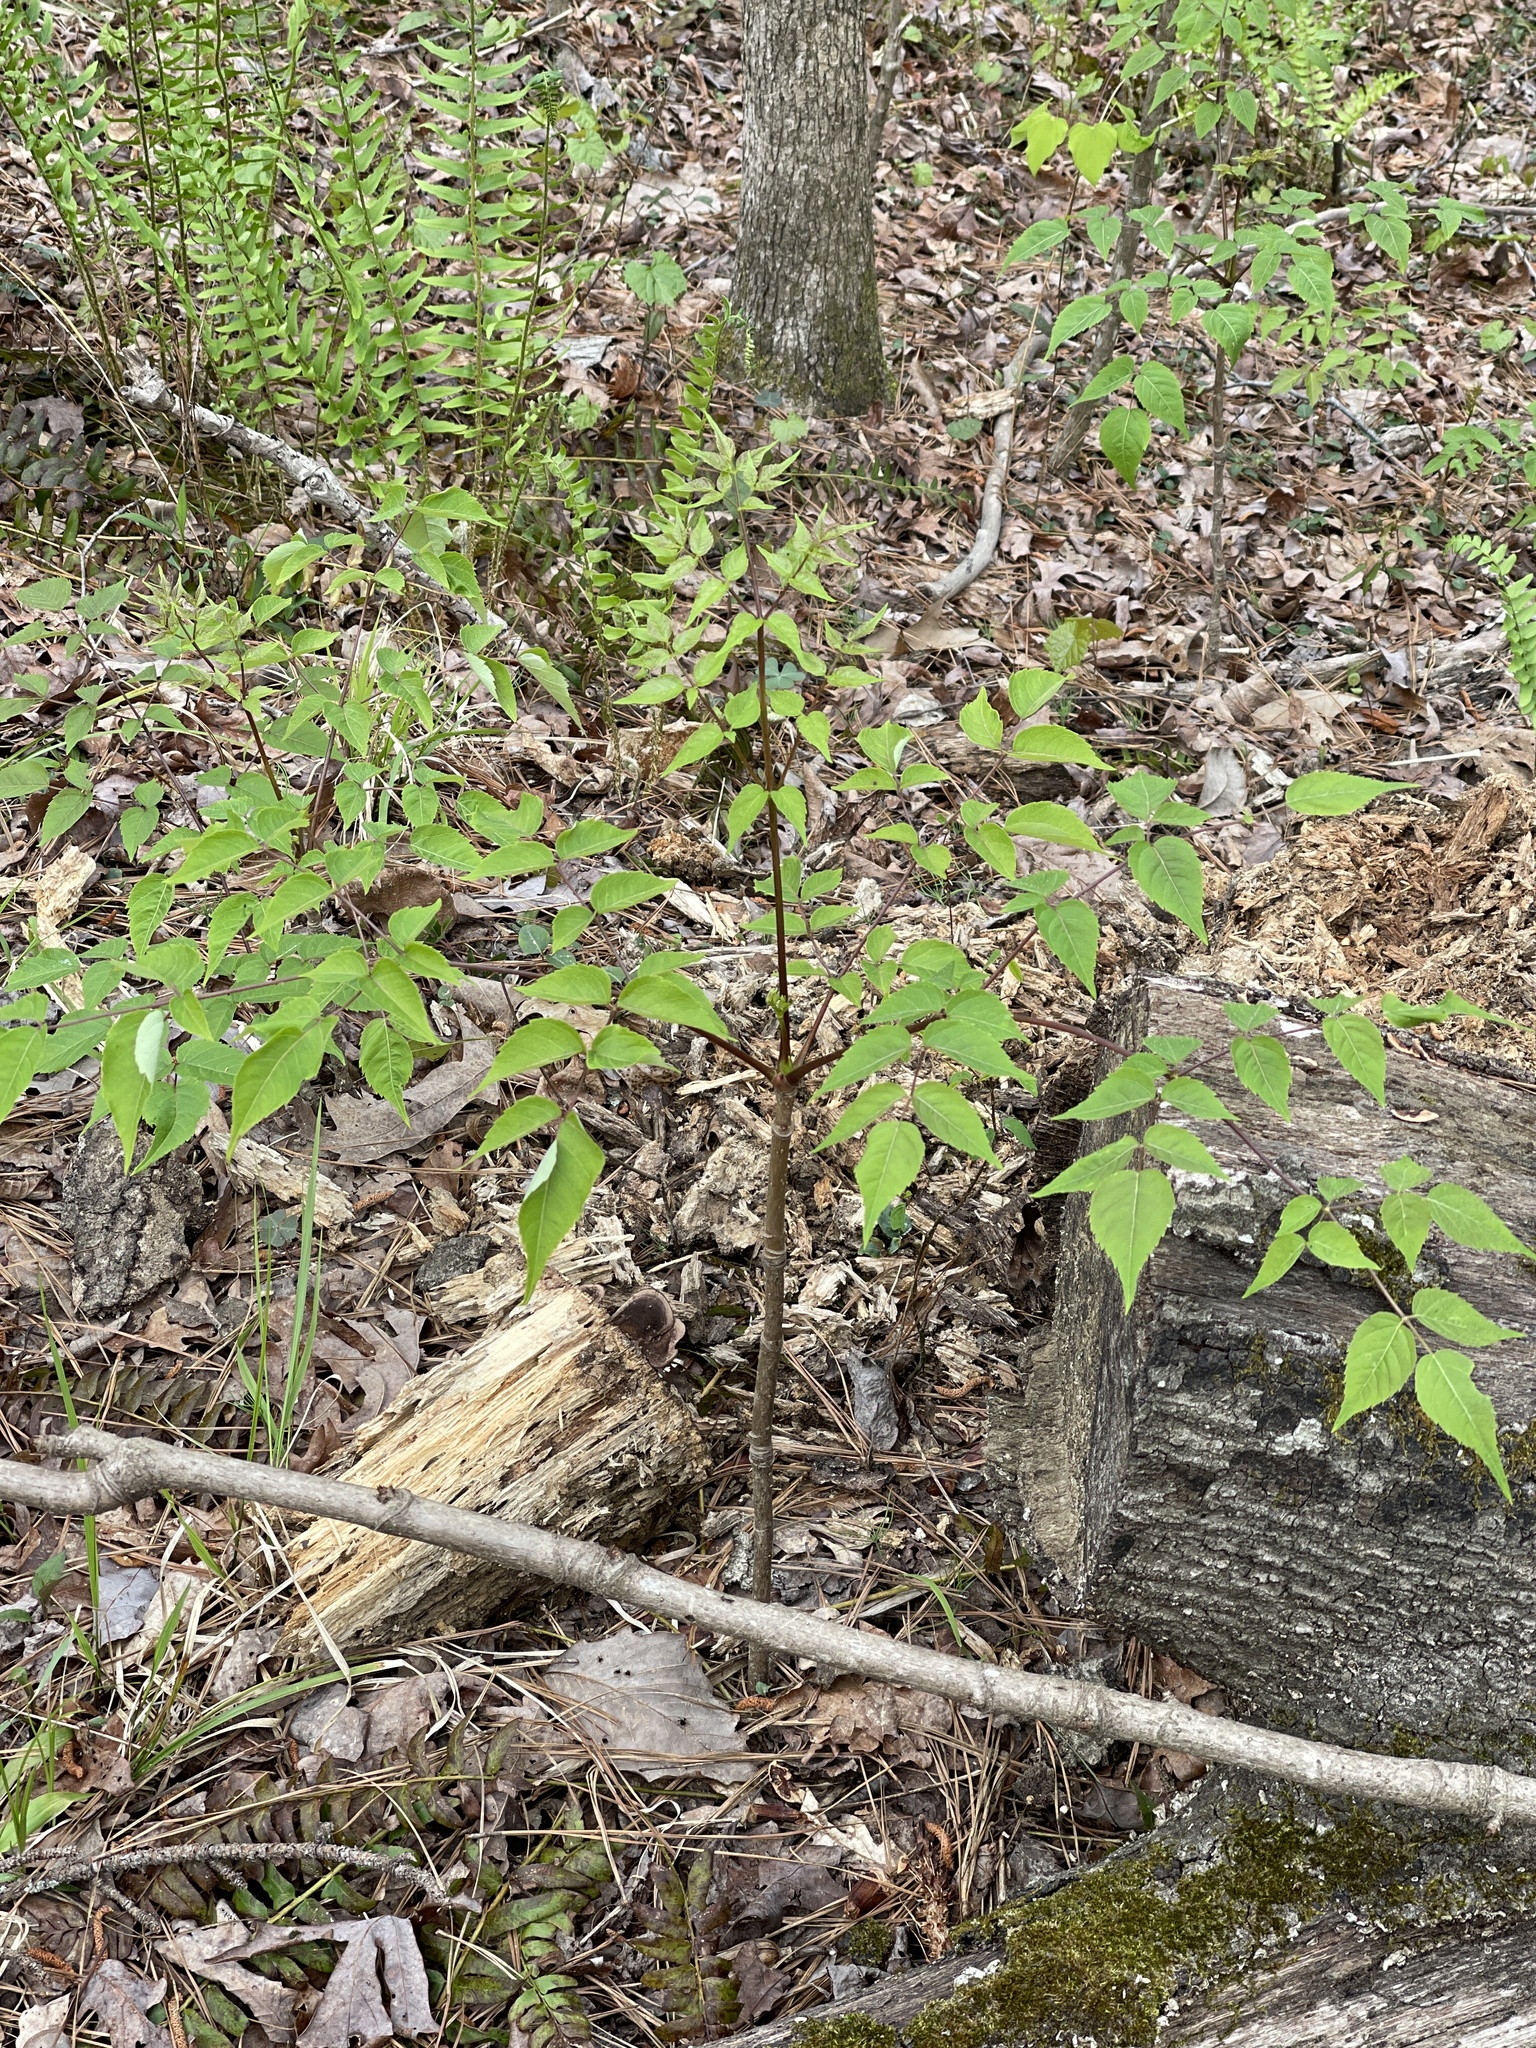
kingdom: Plantae
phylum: Tracheophyta
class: Magnoliopsida
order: Apiales
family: Araliaceae
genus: Aralia
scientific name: Aralia spinosa
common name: Hercules'-club
